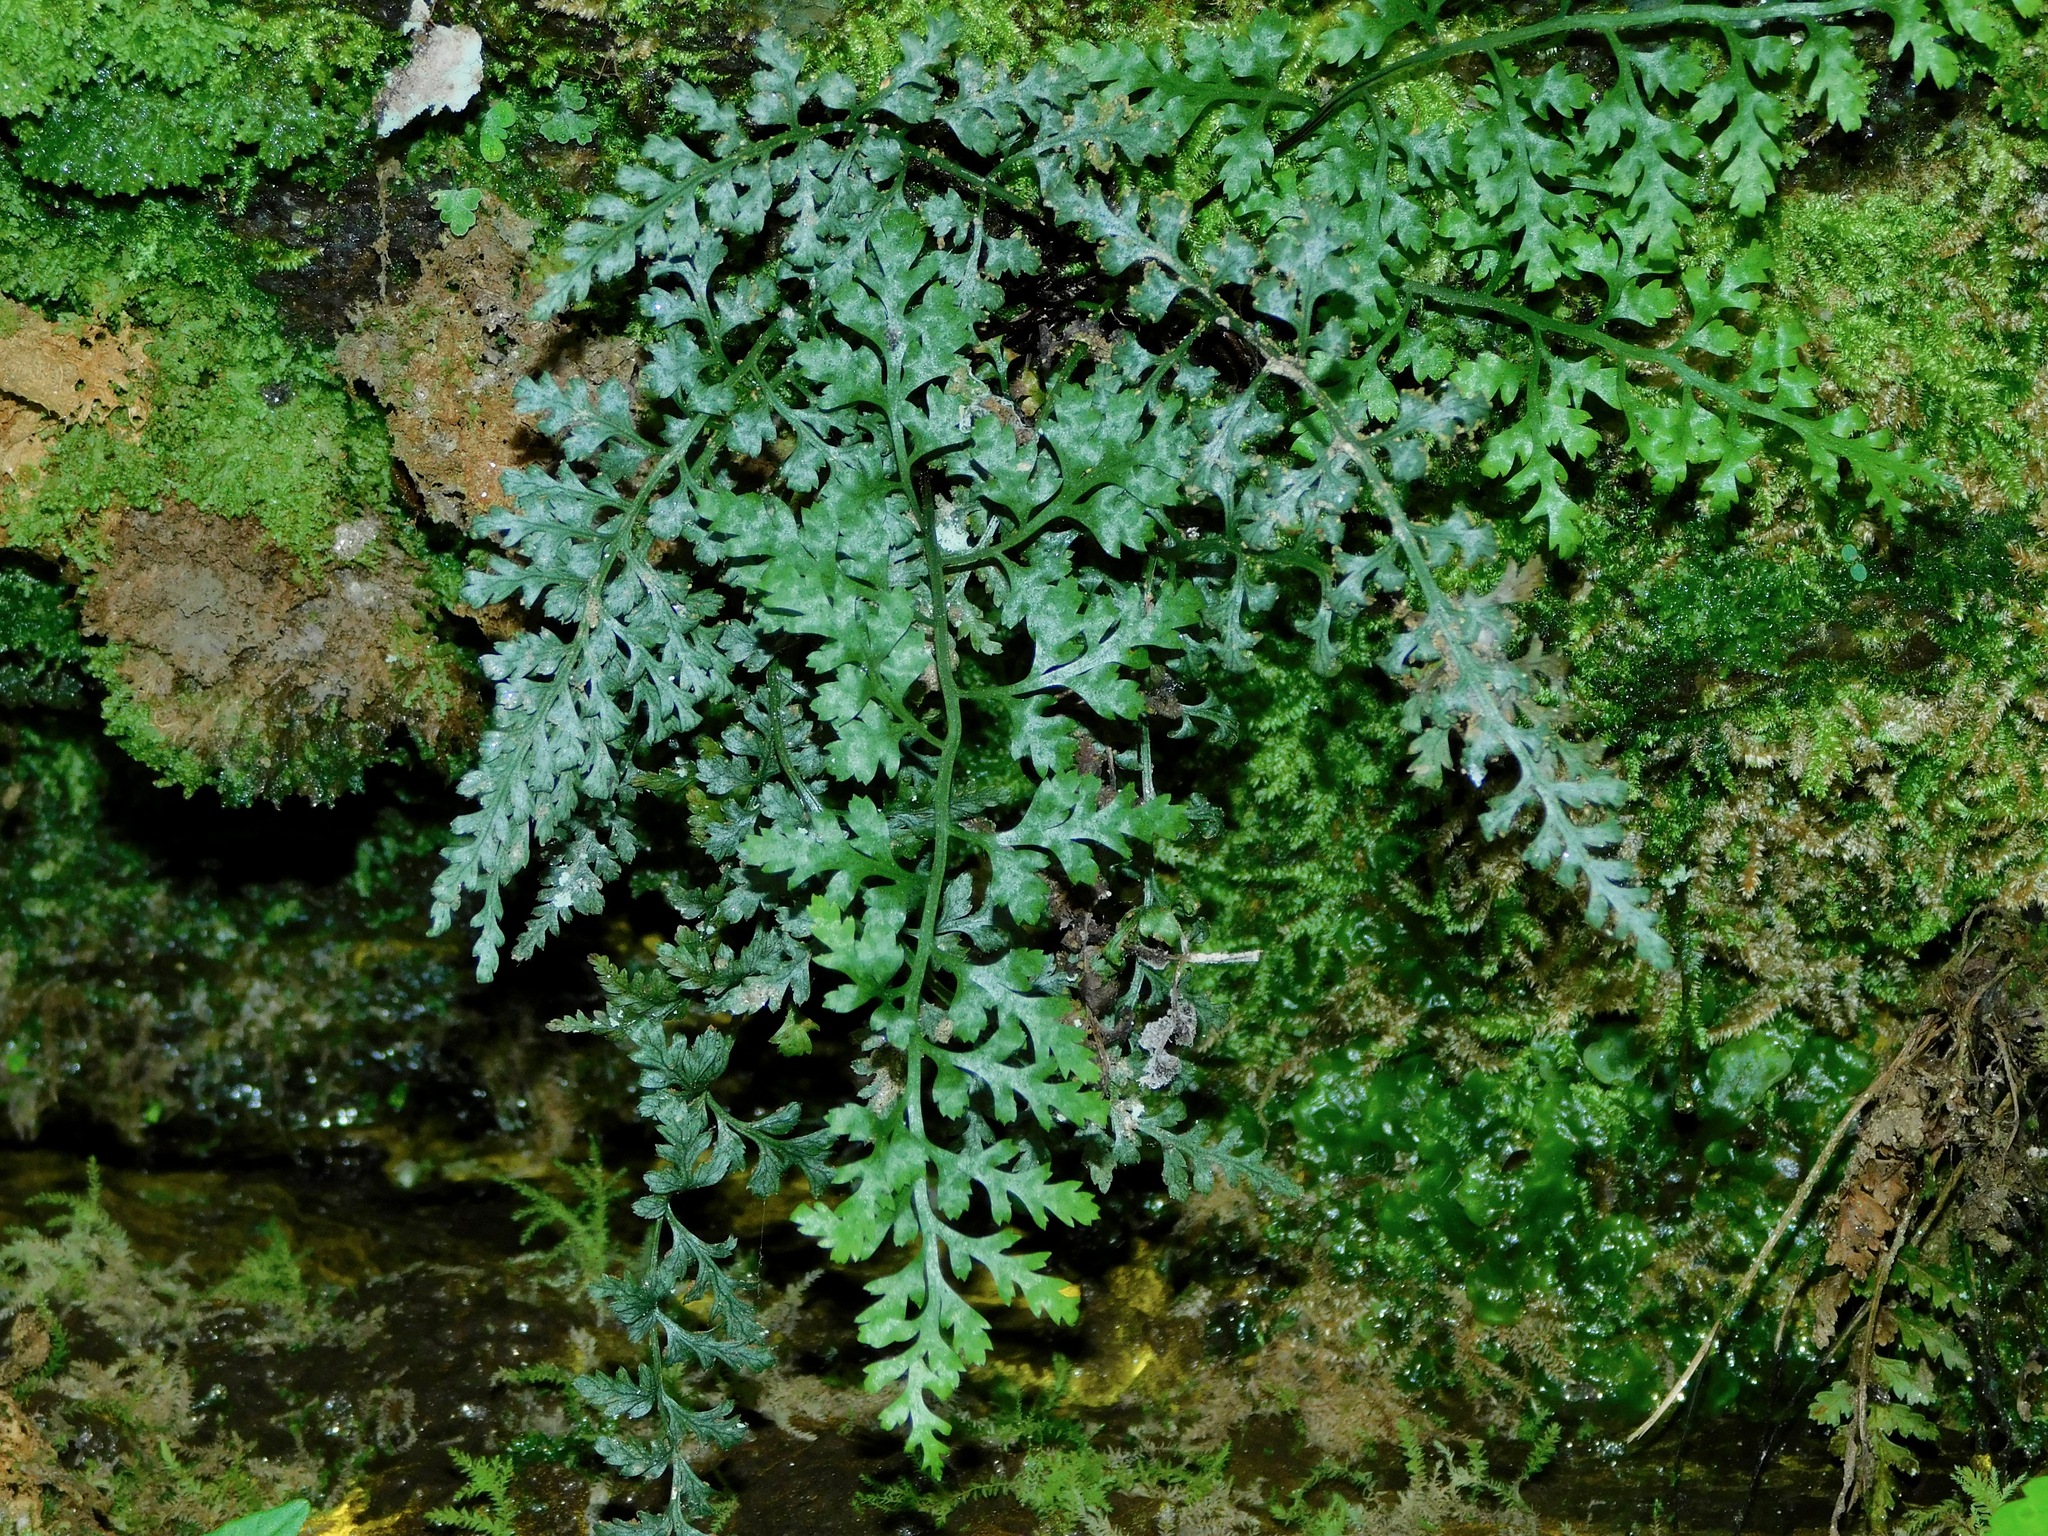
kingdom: Plantae
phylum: Tracheophyta
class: Polypodiopsida
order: Polypodiales
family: Aspleniaceae
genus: Asplenium
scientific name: Asplenium montanum
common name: Mountain spleenwort
